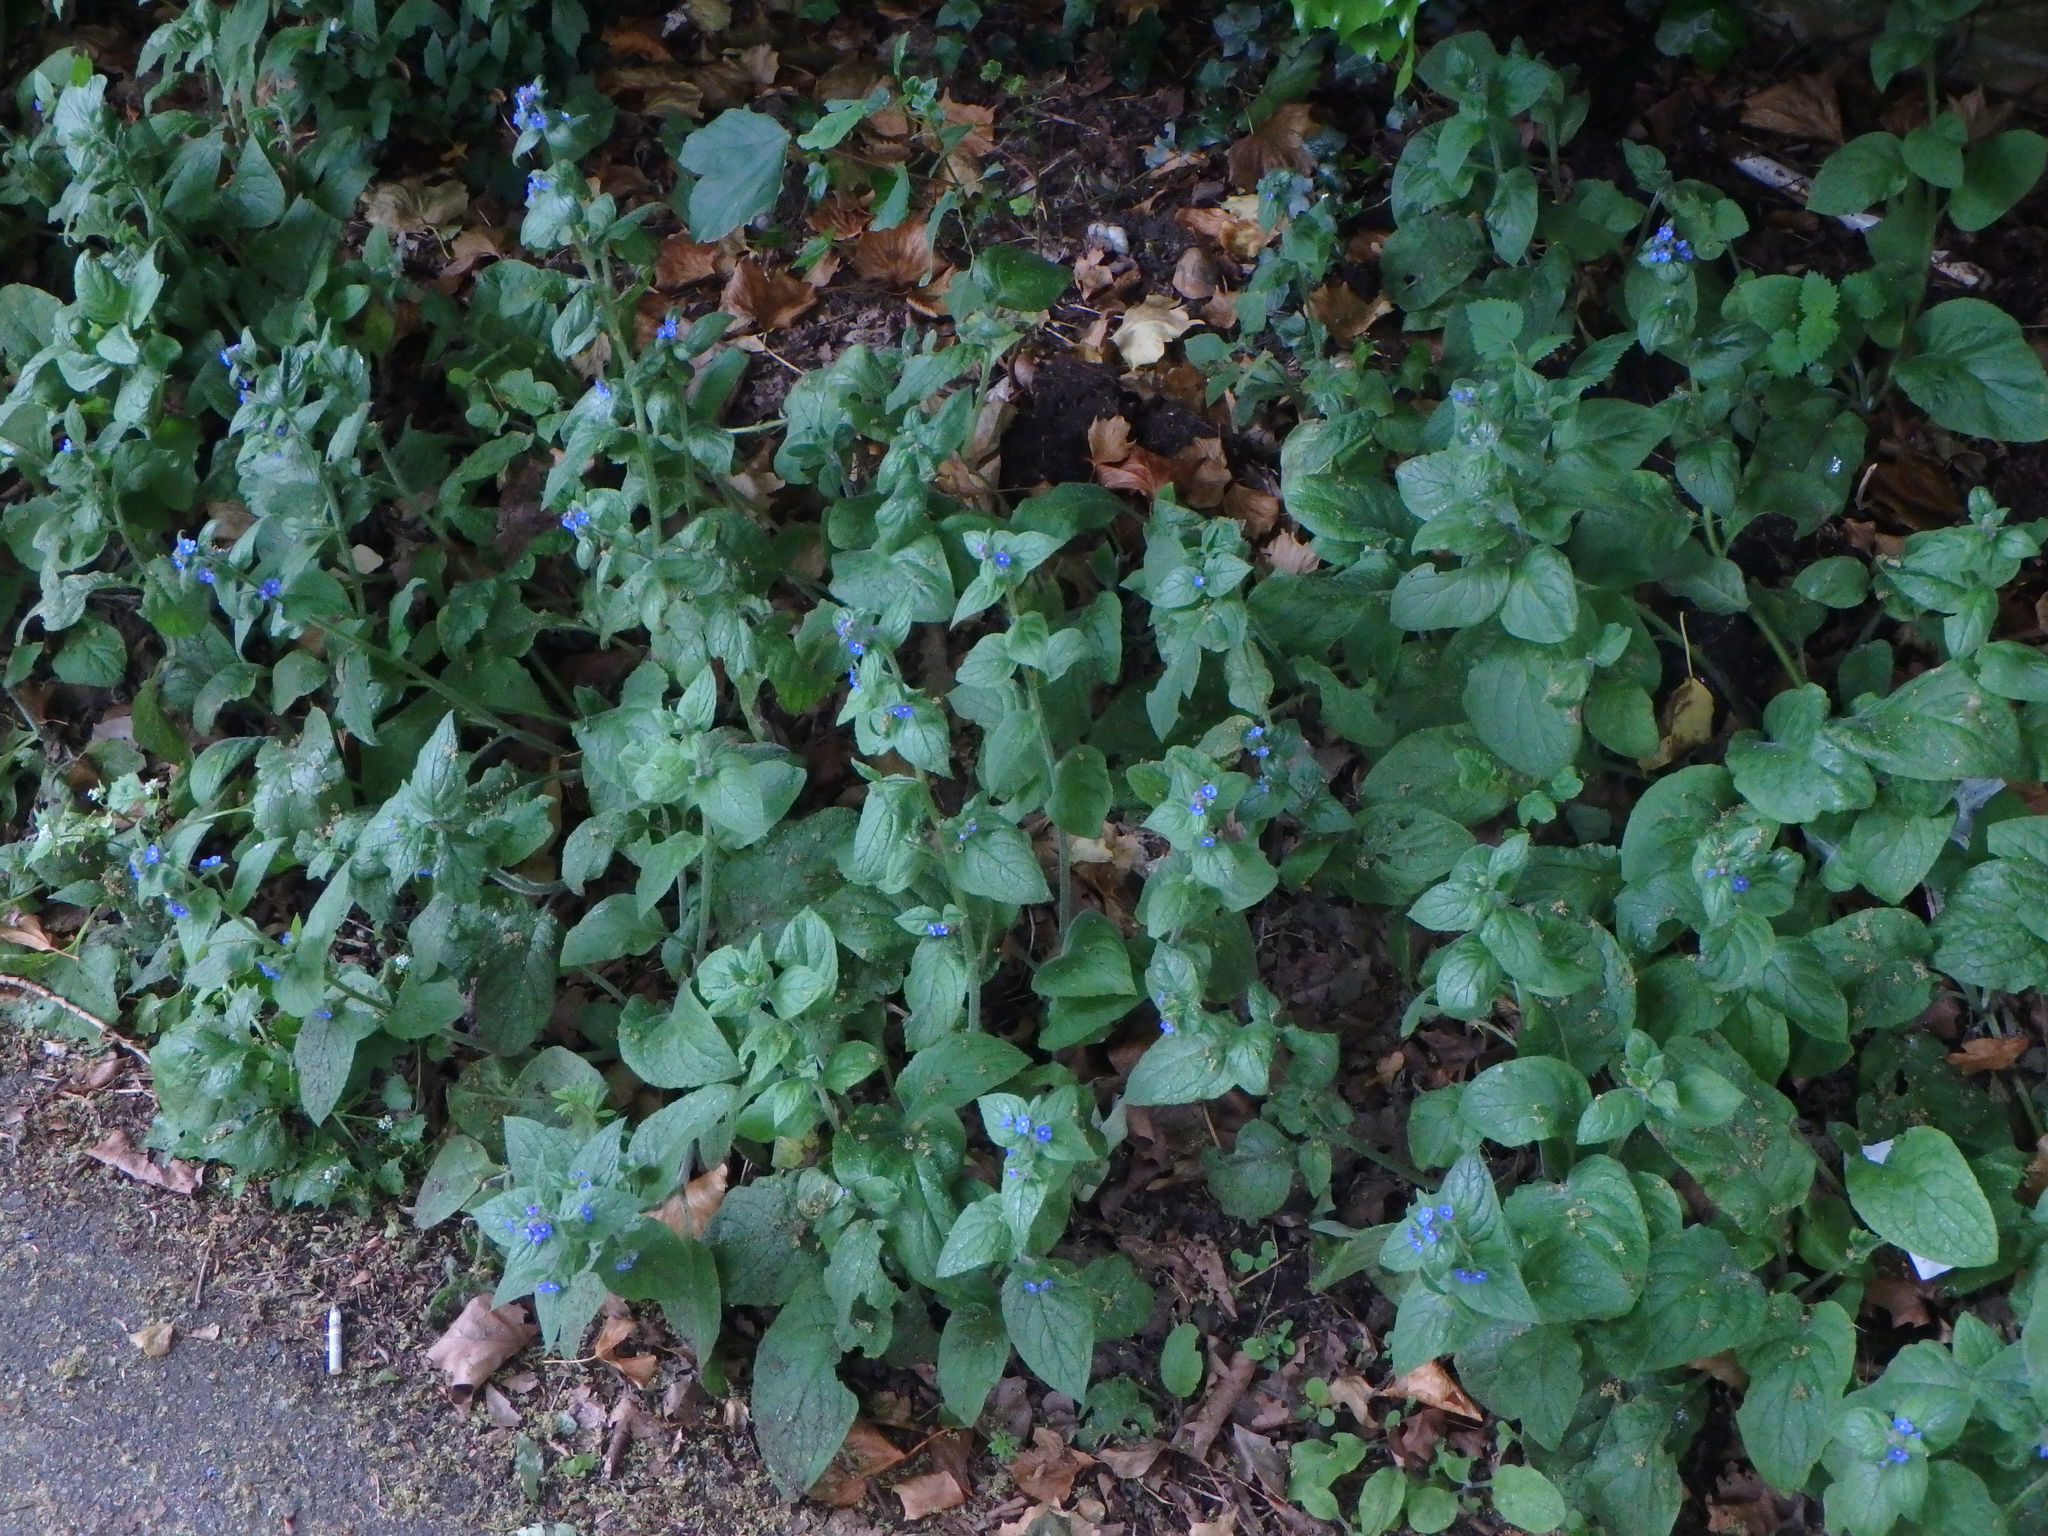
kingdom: Plantae
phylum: Tracheophyta
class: Magnoliopsida
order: Boraginales
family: Boraginaceae
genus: Pentaglottis
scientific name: Pentaglottis sempervirens
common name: Green alkanet
